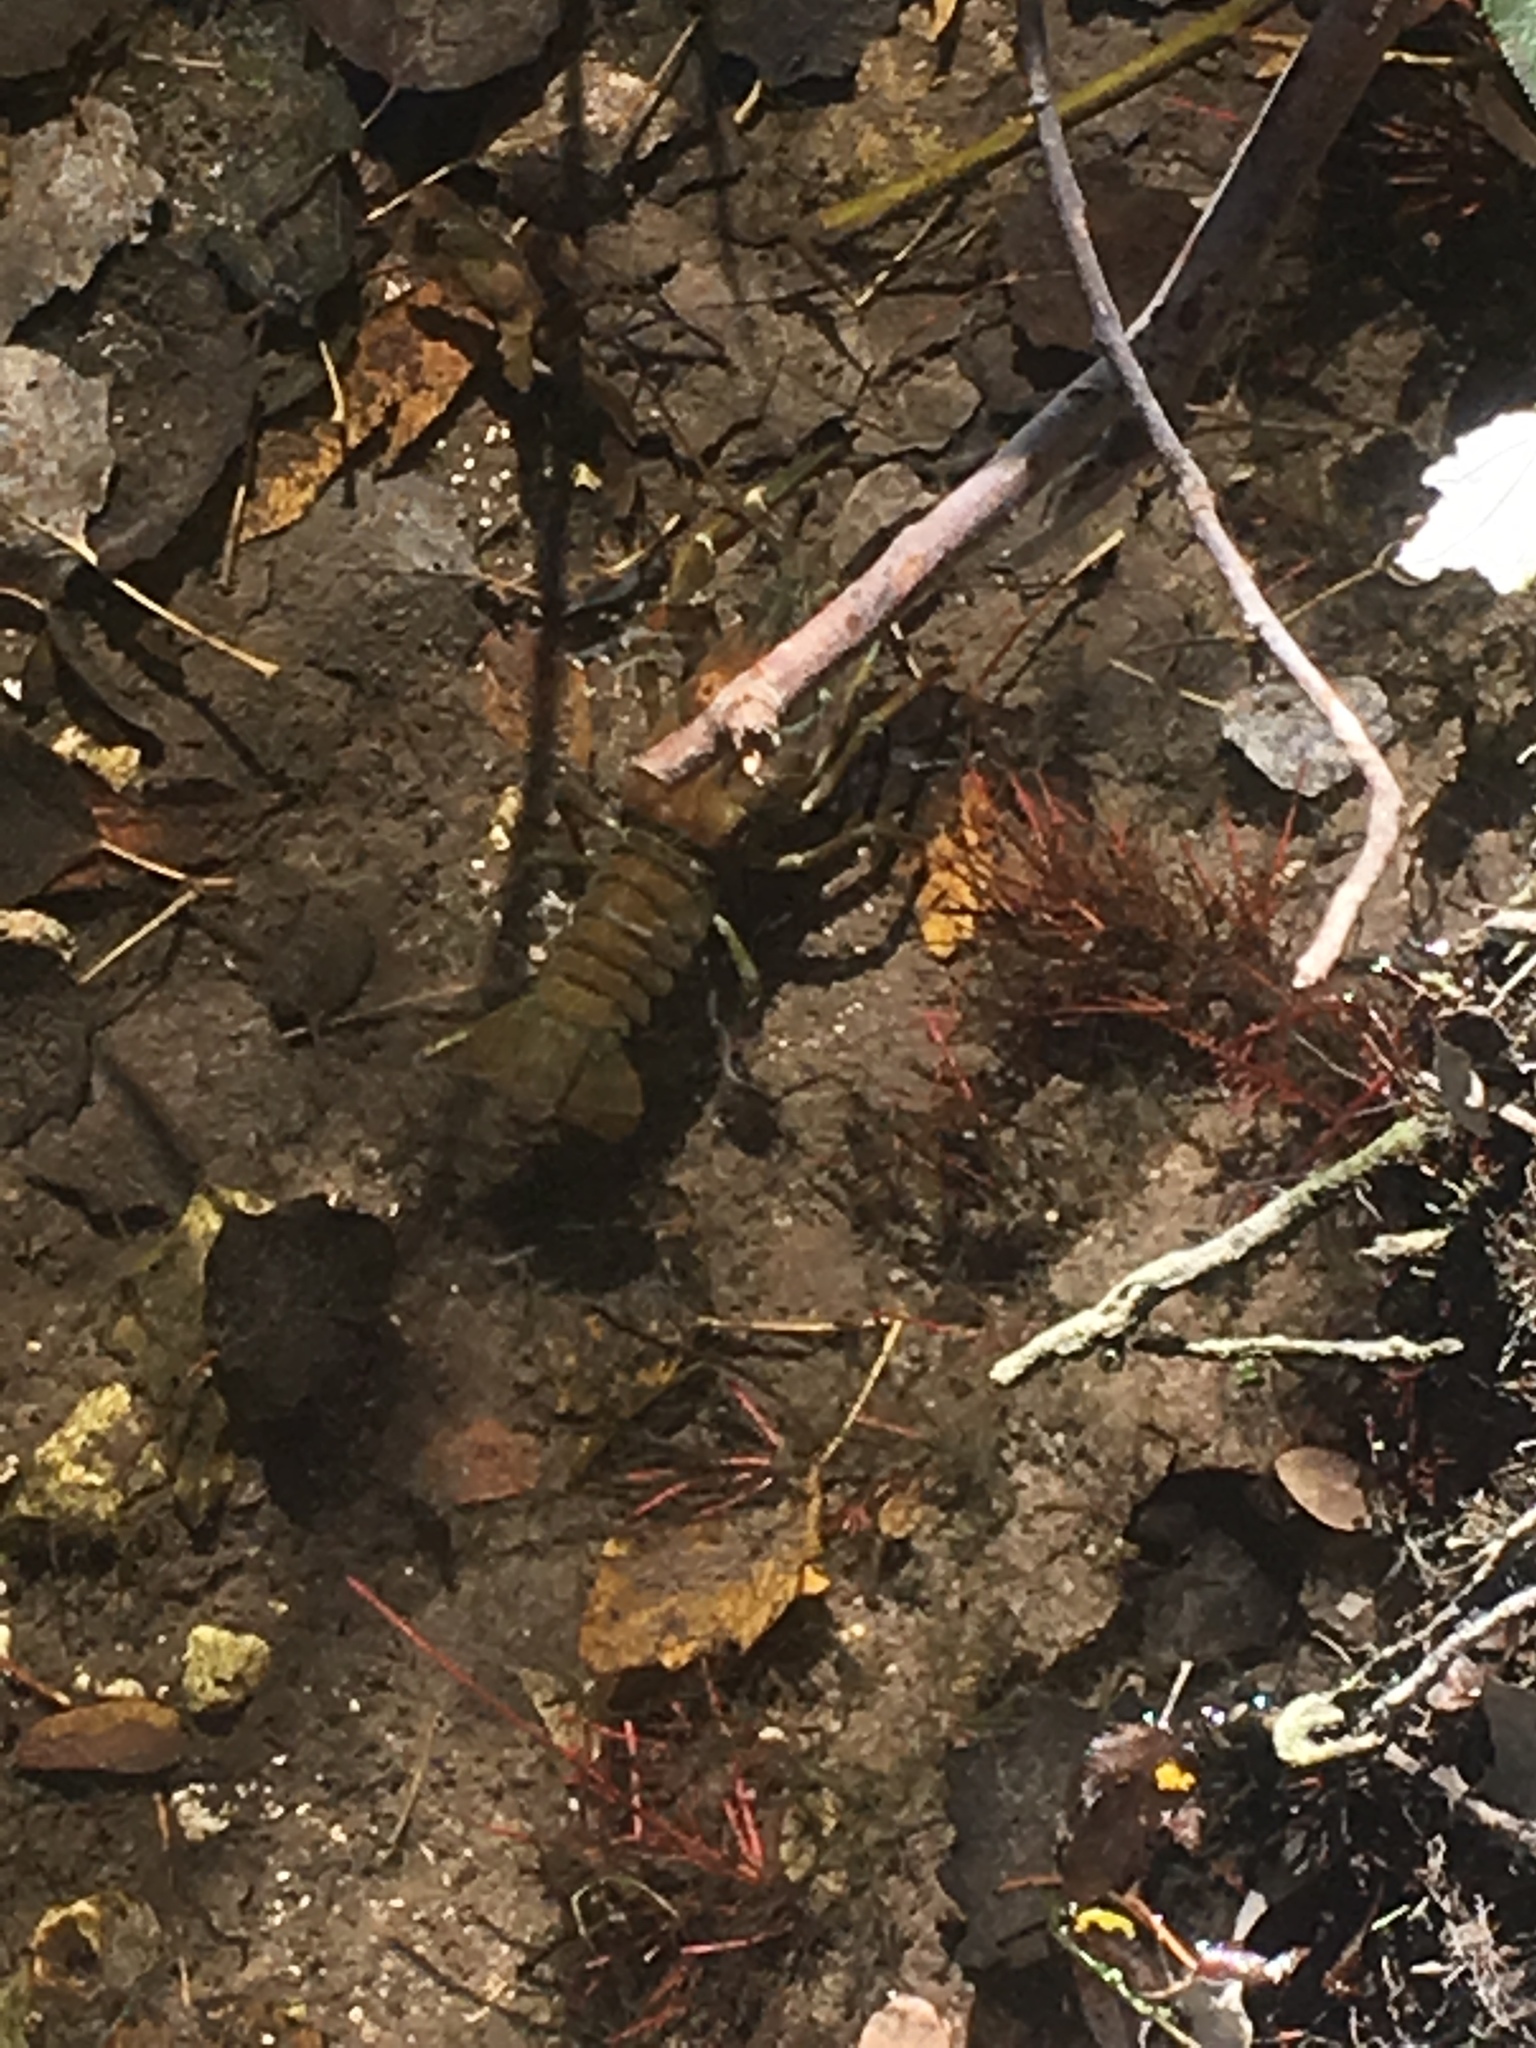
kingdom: Animalia
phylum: Arthropoda
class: Malacostraca
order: Decapoda
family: Astacidae
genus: Pacifastacus
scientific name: Pacifastacus leniusculus
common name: Signal crayfish
